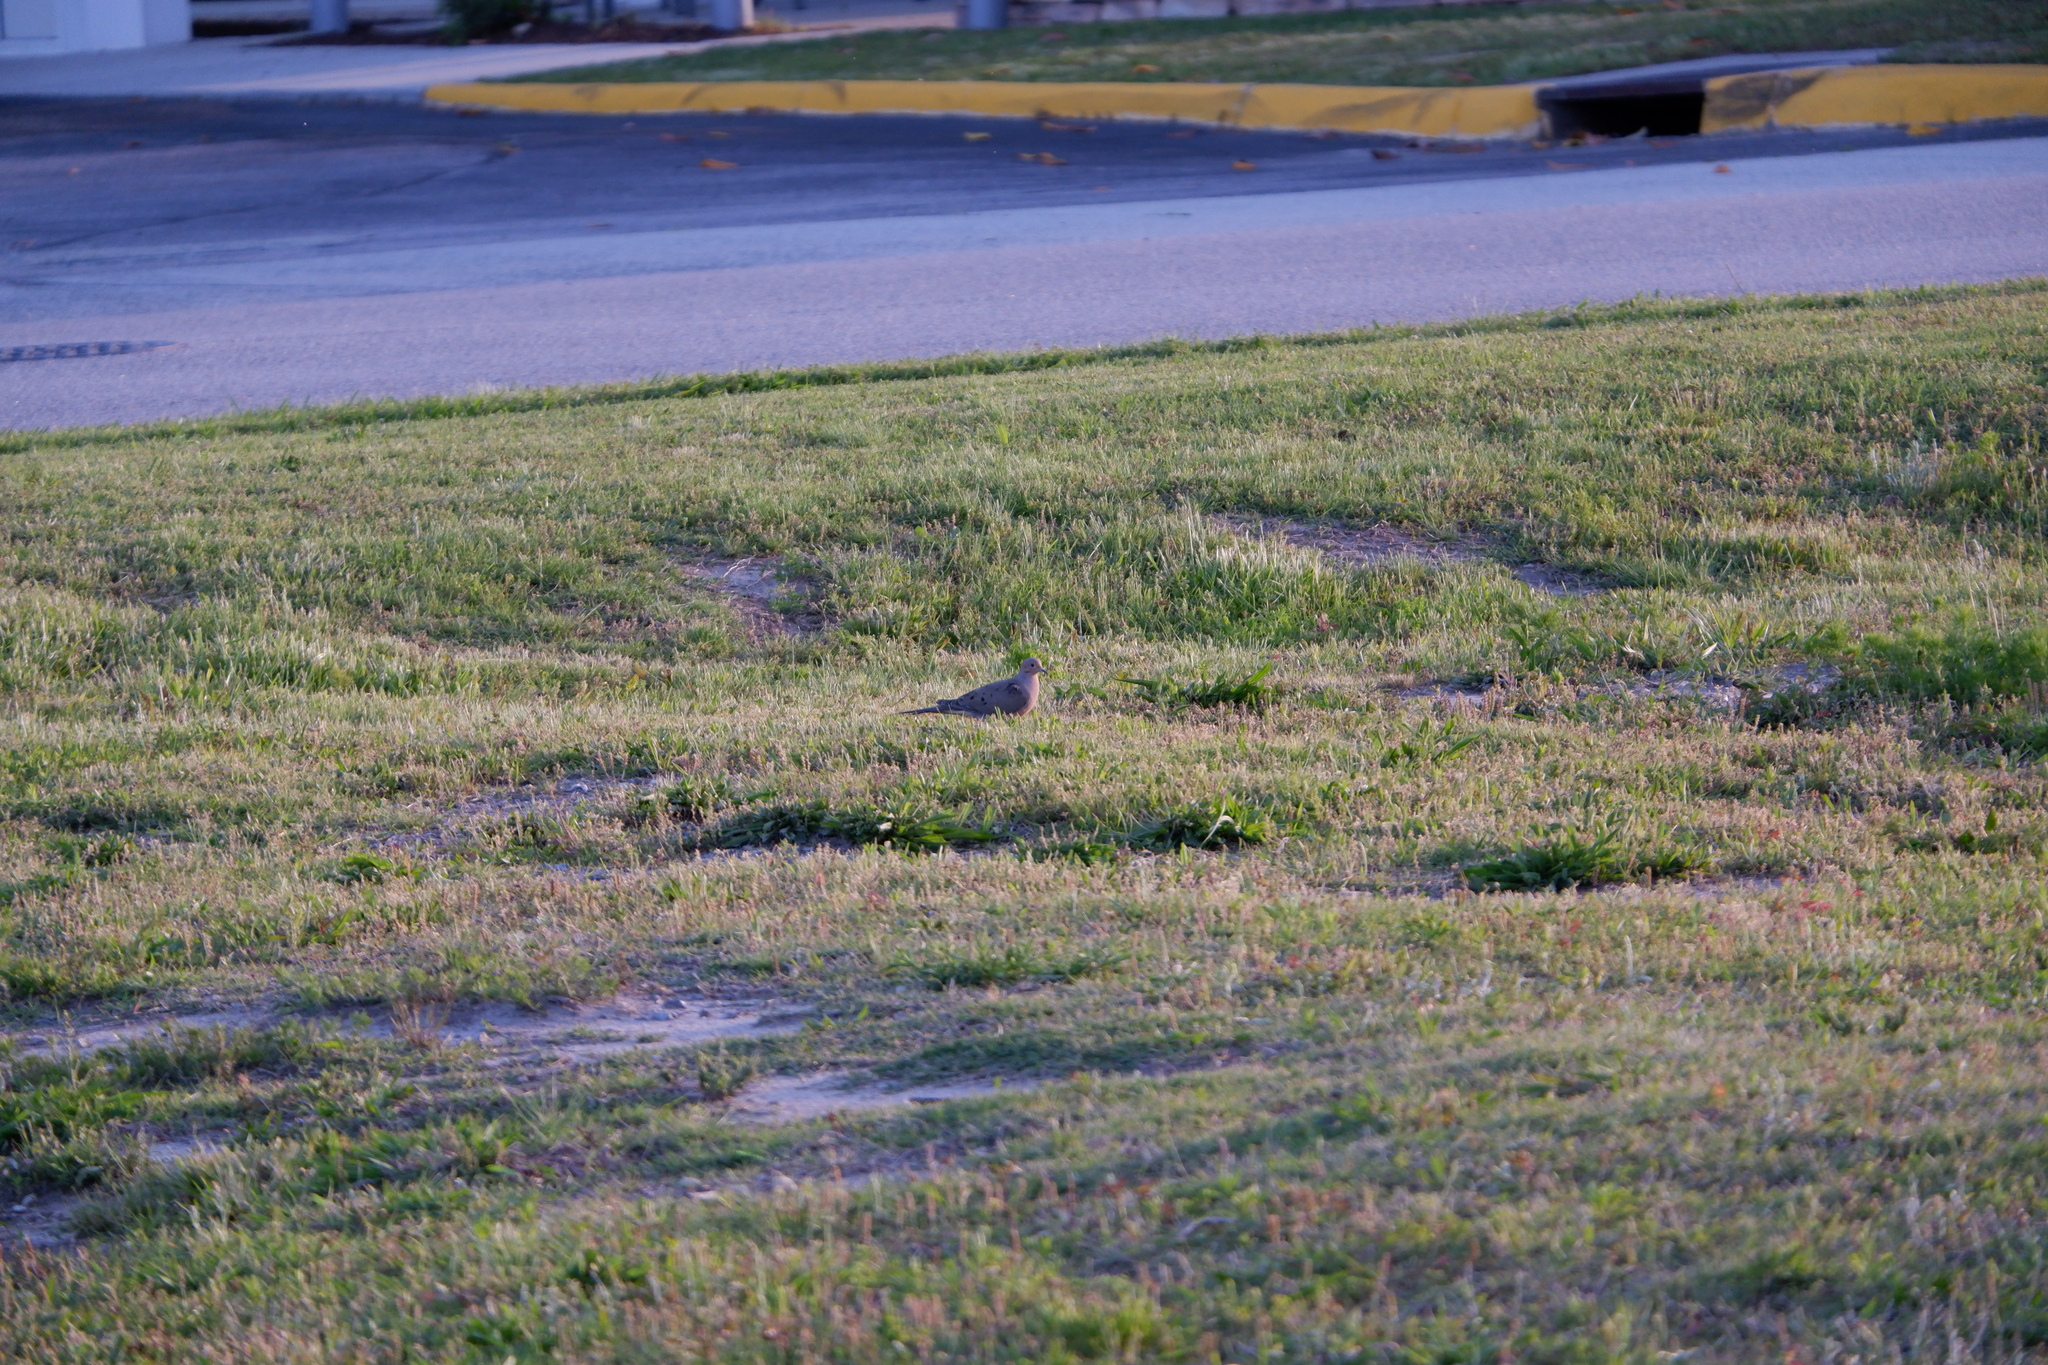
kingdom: Animalia
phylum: Chordata
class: Aves
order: Columbiformes
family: Columbidae
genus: Zenaida
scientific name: Zenaida macroura
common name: Mourning dove
